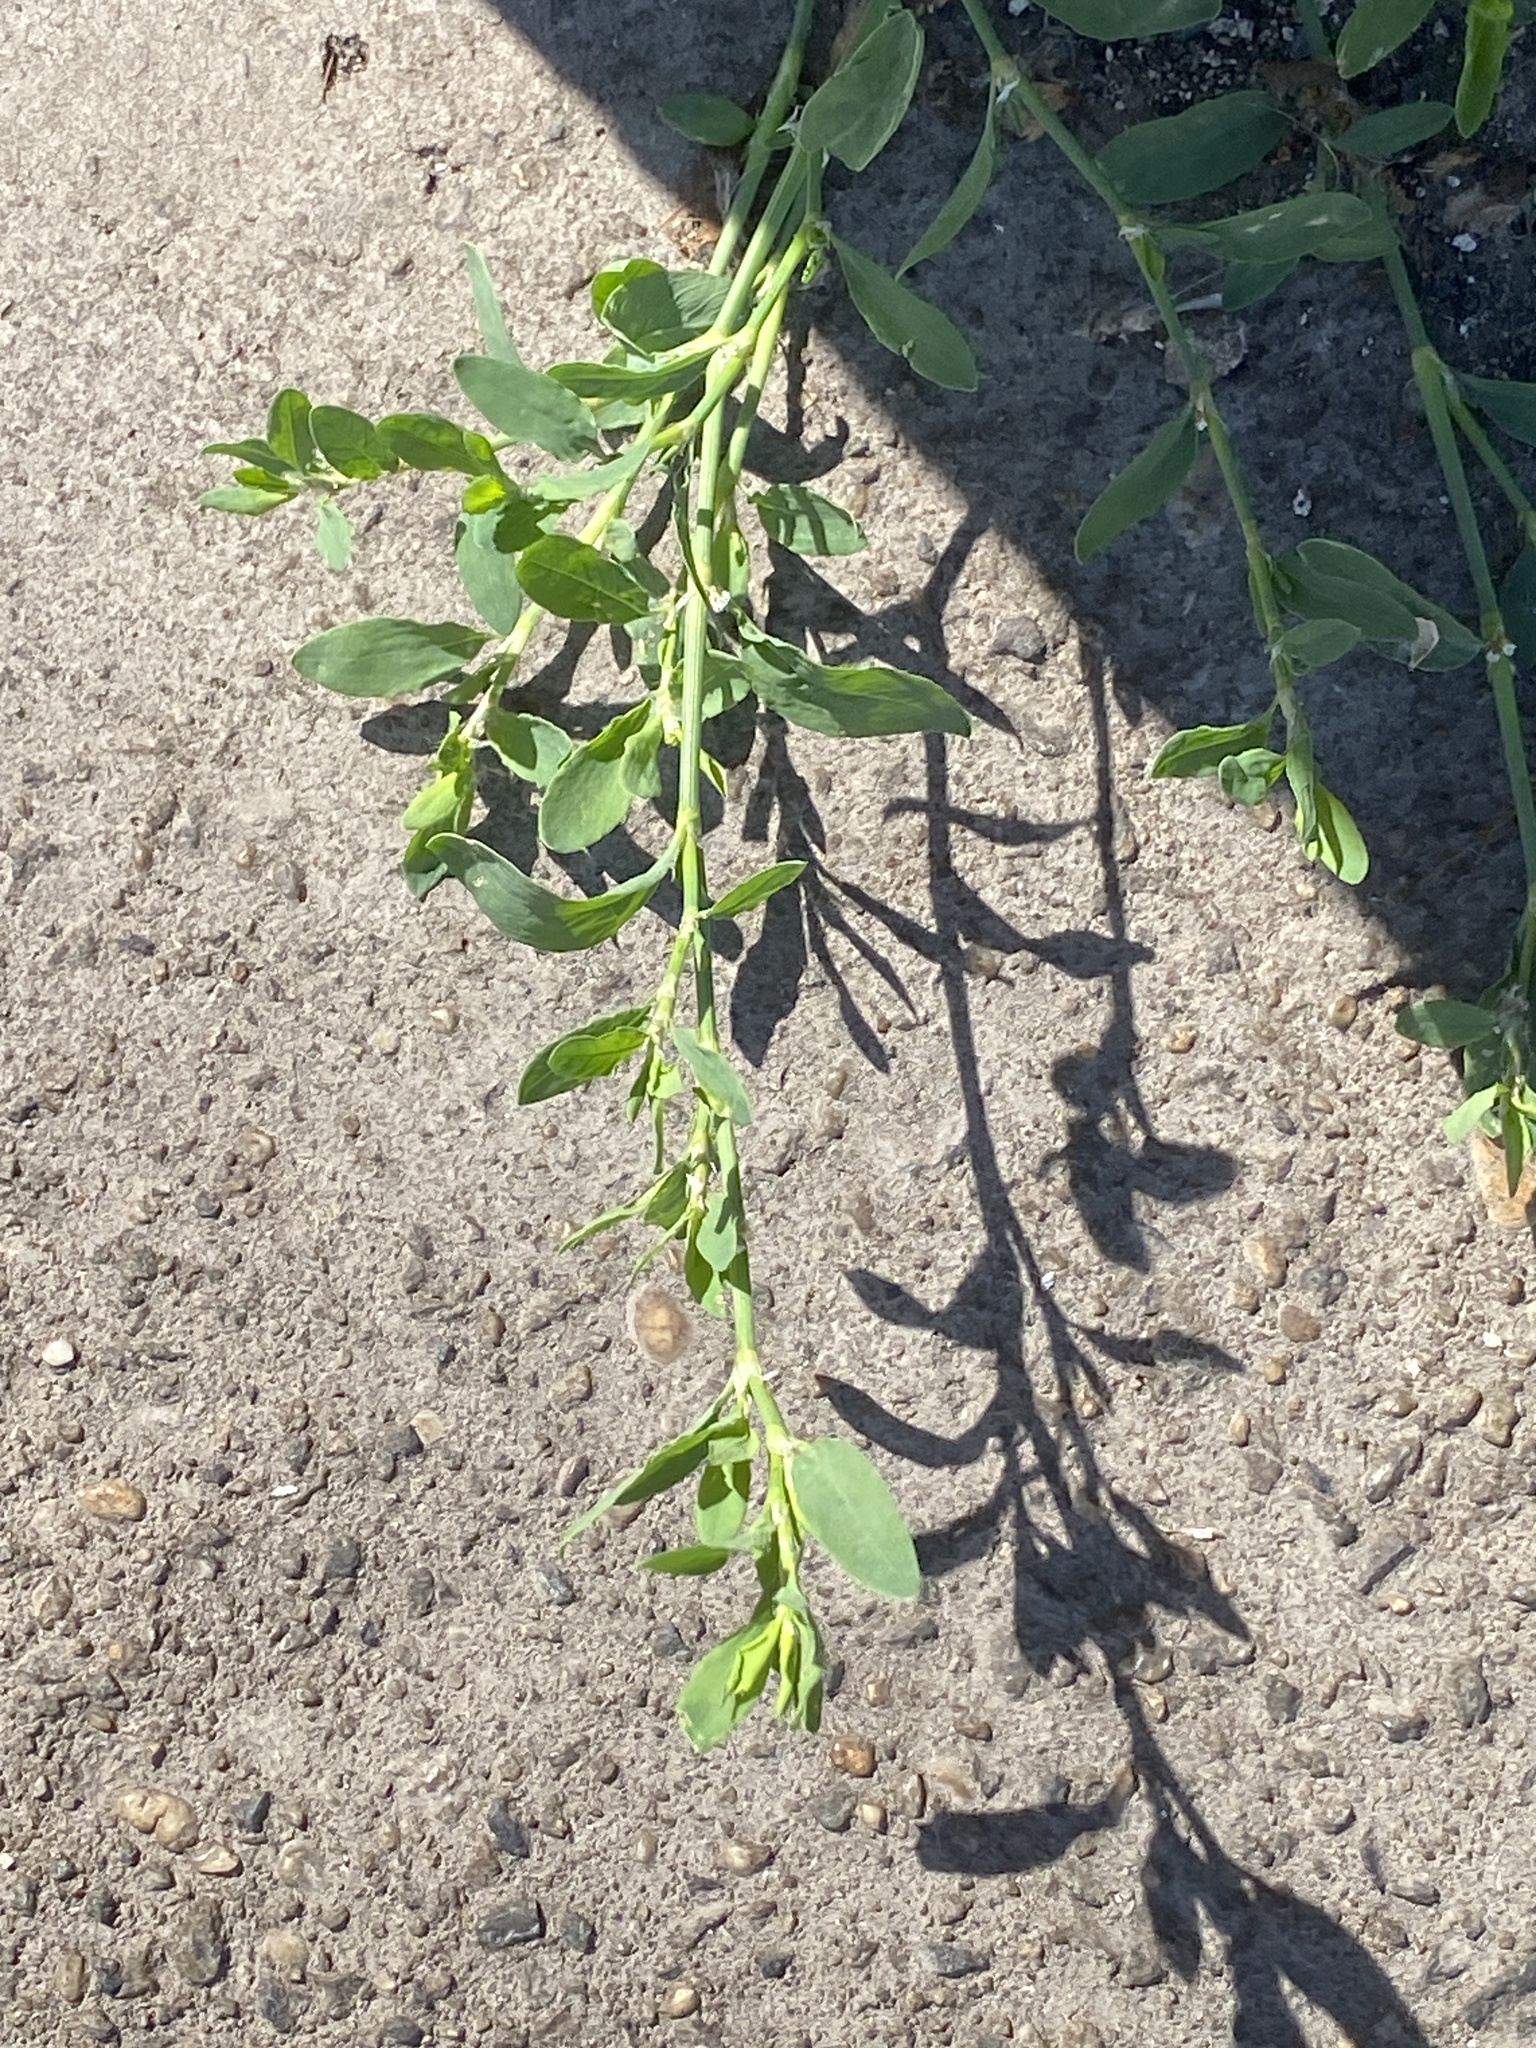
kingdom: Plantae
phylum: Tracheophyta
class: Magnoliopsida
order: Caryophyllales
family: Polygonaceae
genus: Polygonum
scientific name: Polygonum aviculare
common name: Prostrate knotweed
